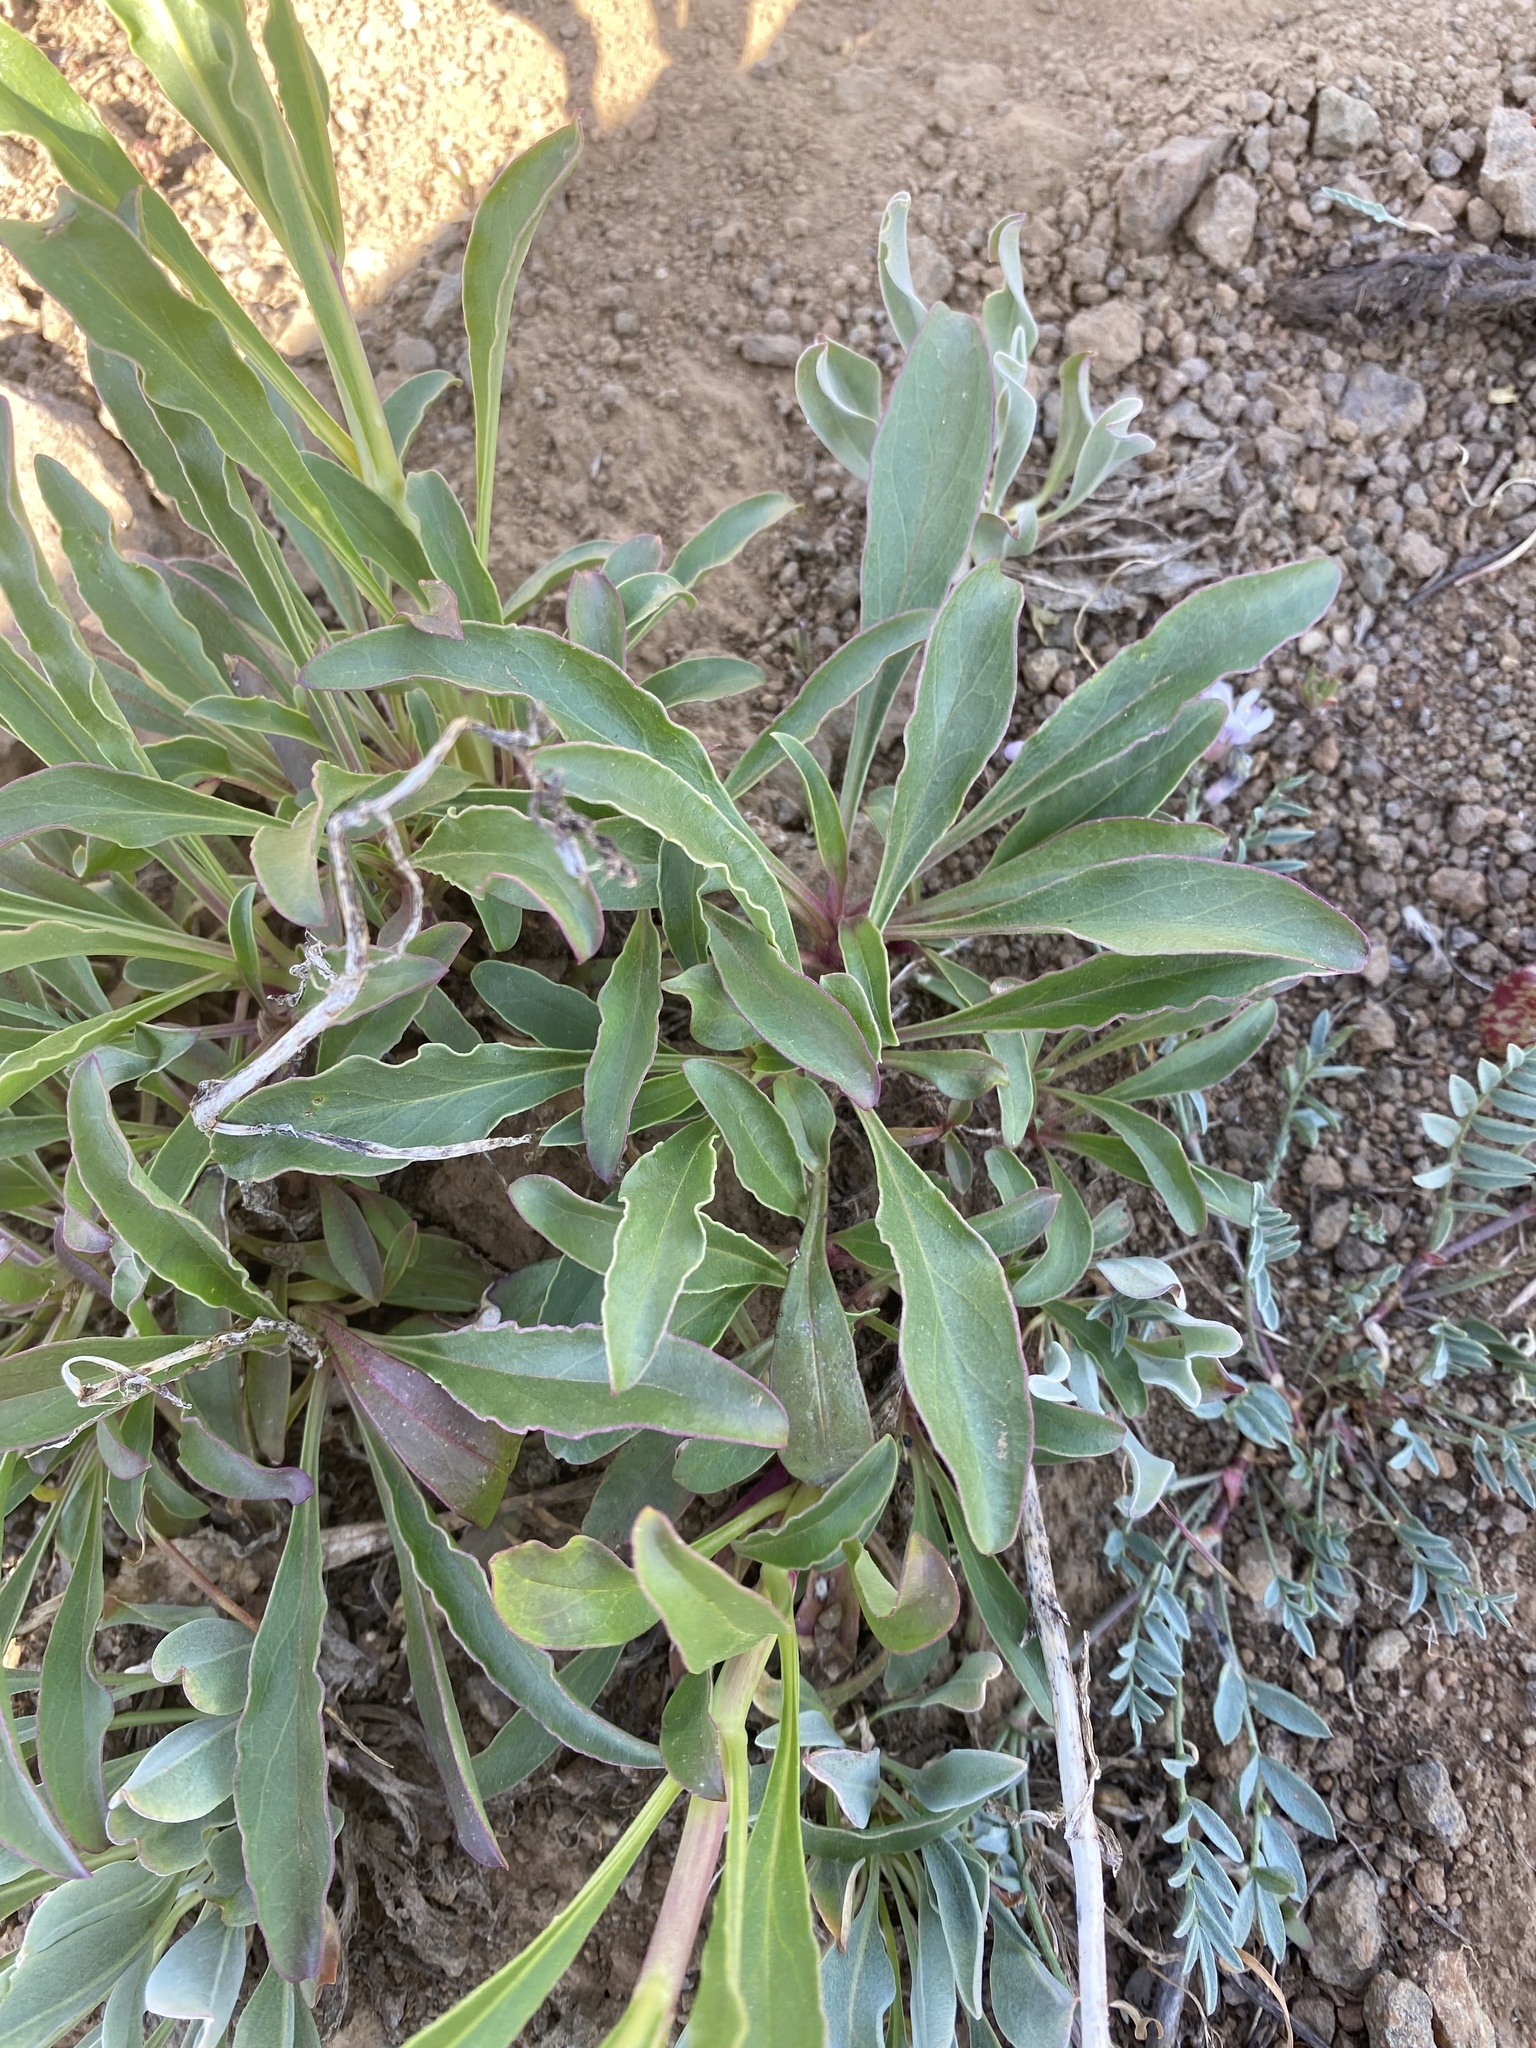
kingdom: Plantae
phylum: Tracheophyta
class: Magnoliopsida
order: Lamiales
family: Plantaginaceae
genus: Penstemon
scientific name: Penstemon speciosus
